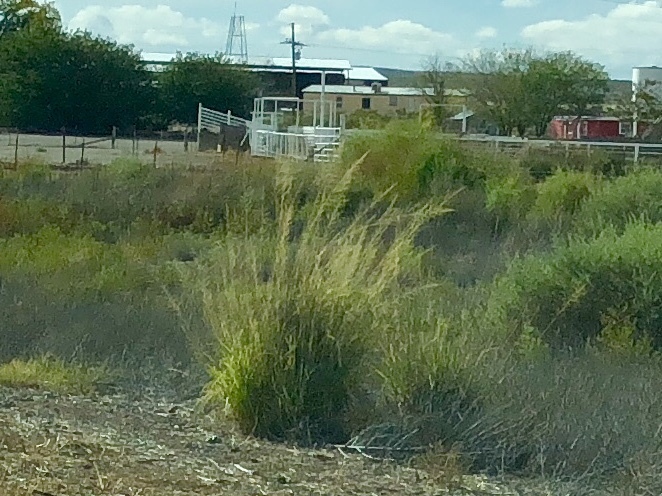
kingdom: Plantae
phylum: Tracheophyta
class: Liliopsida
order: Poales
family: Poaceae
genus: Sporobolus
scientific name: Sporobolus wrightii
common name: Big alkali sacaton
